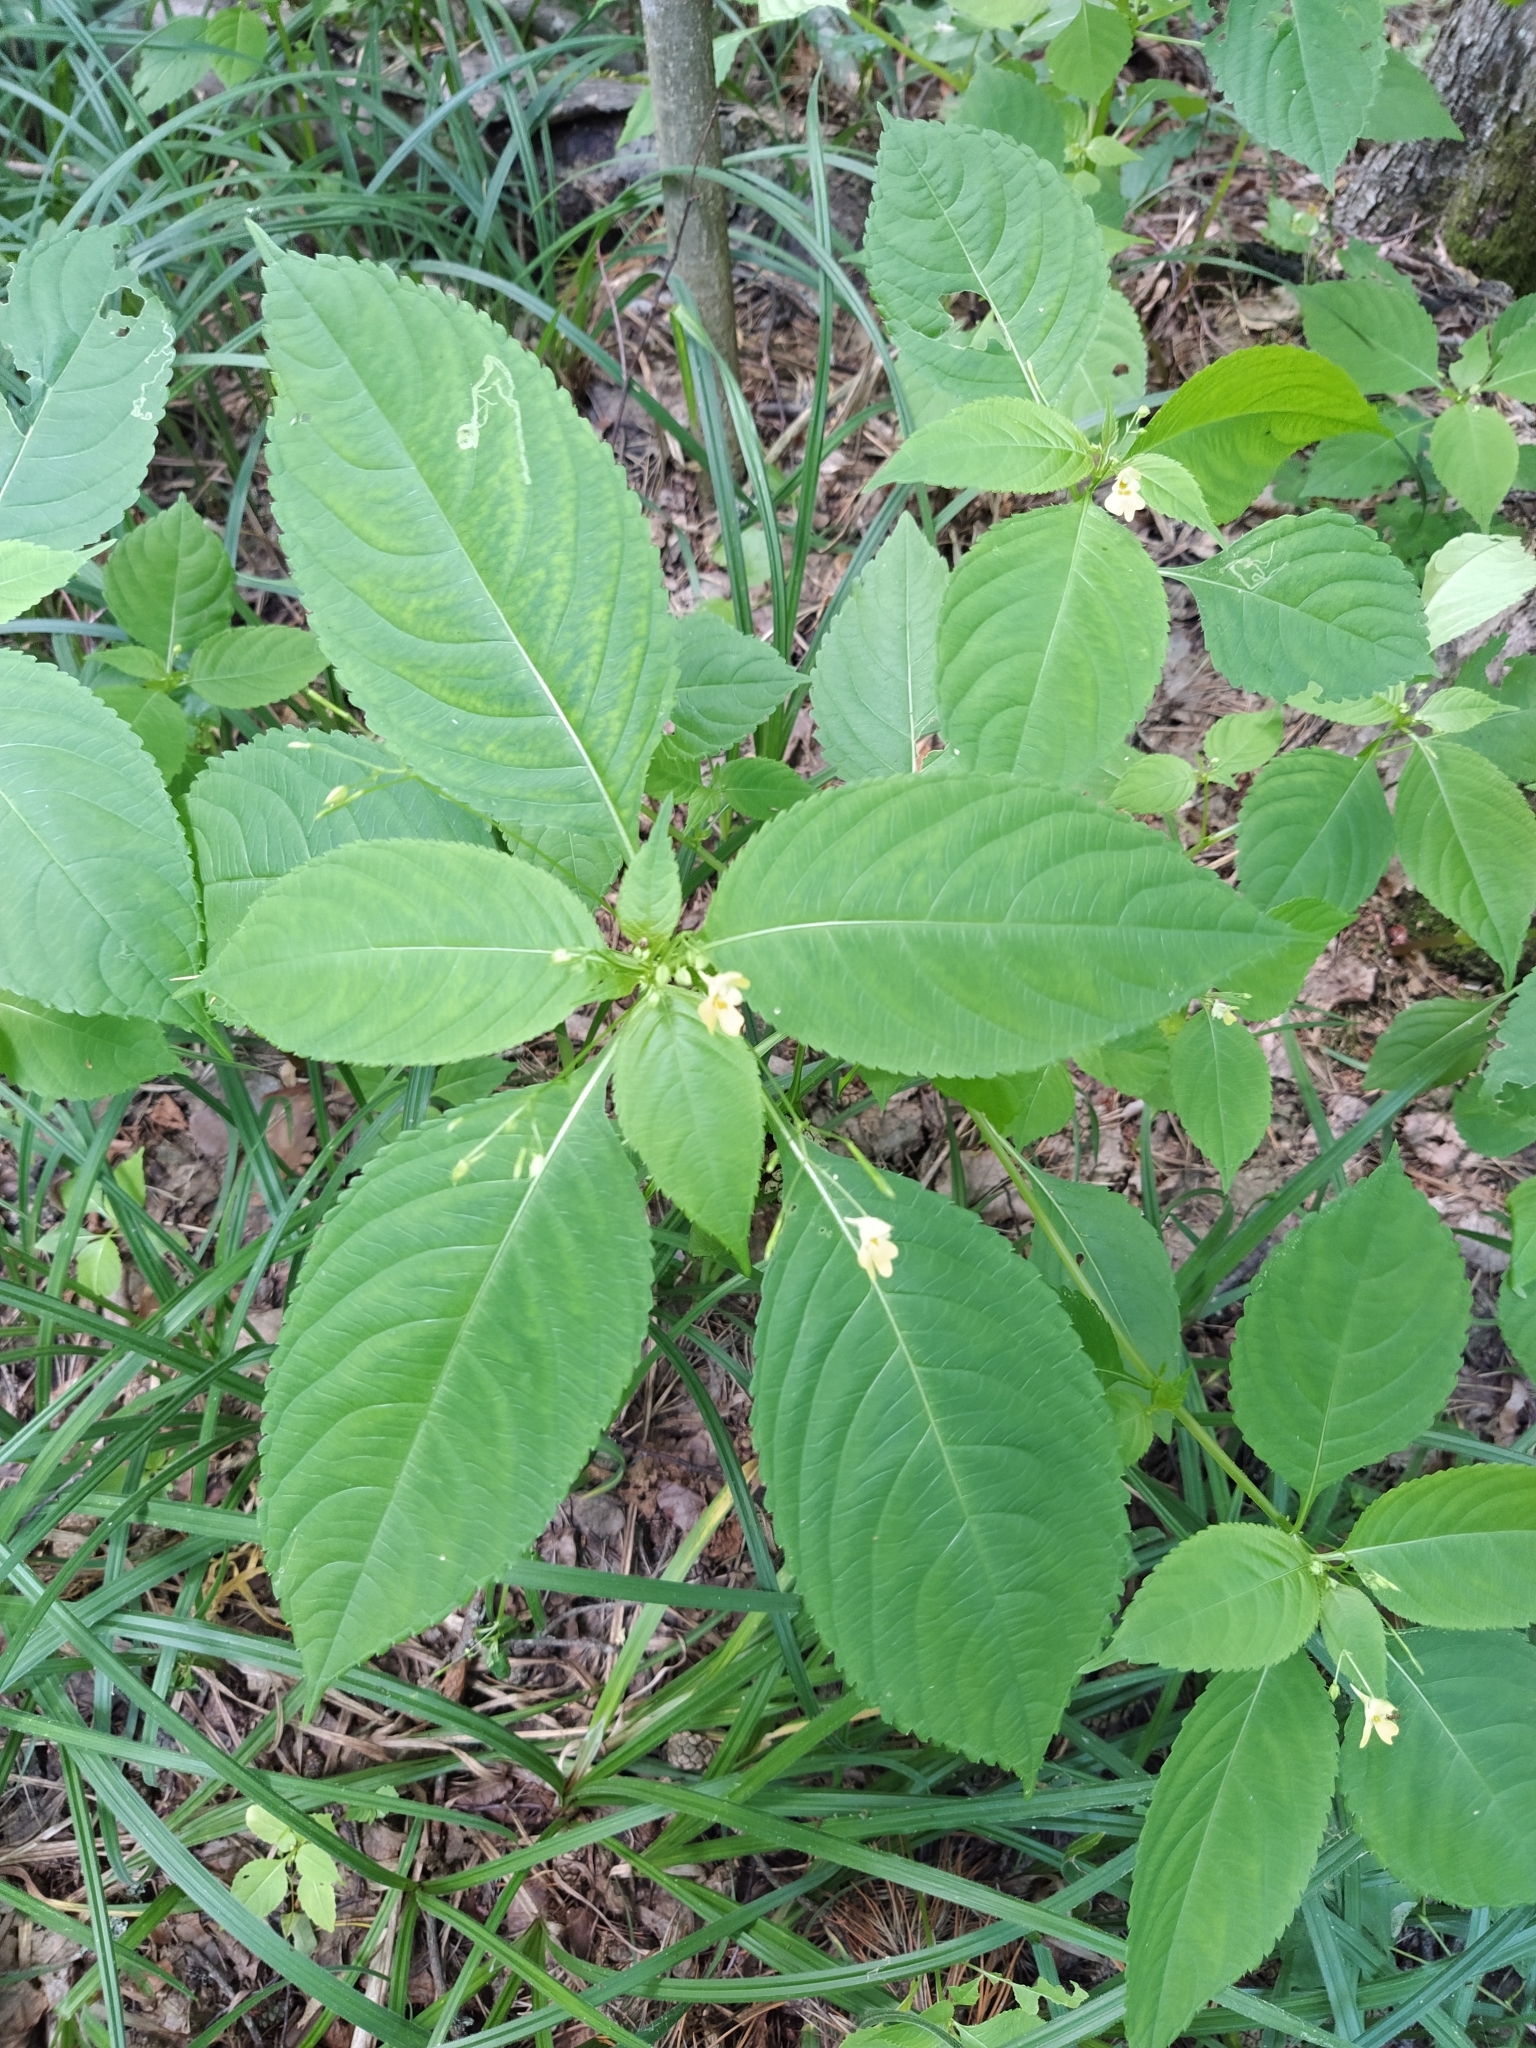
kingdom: Plantae
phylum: Tracheophyta
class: Magnoliopsida
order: Ericales
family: Balsaminaceae
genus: Impatiens
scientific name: Impatiens parviflora
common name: Small balsam
